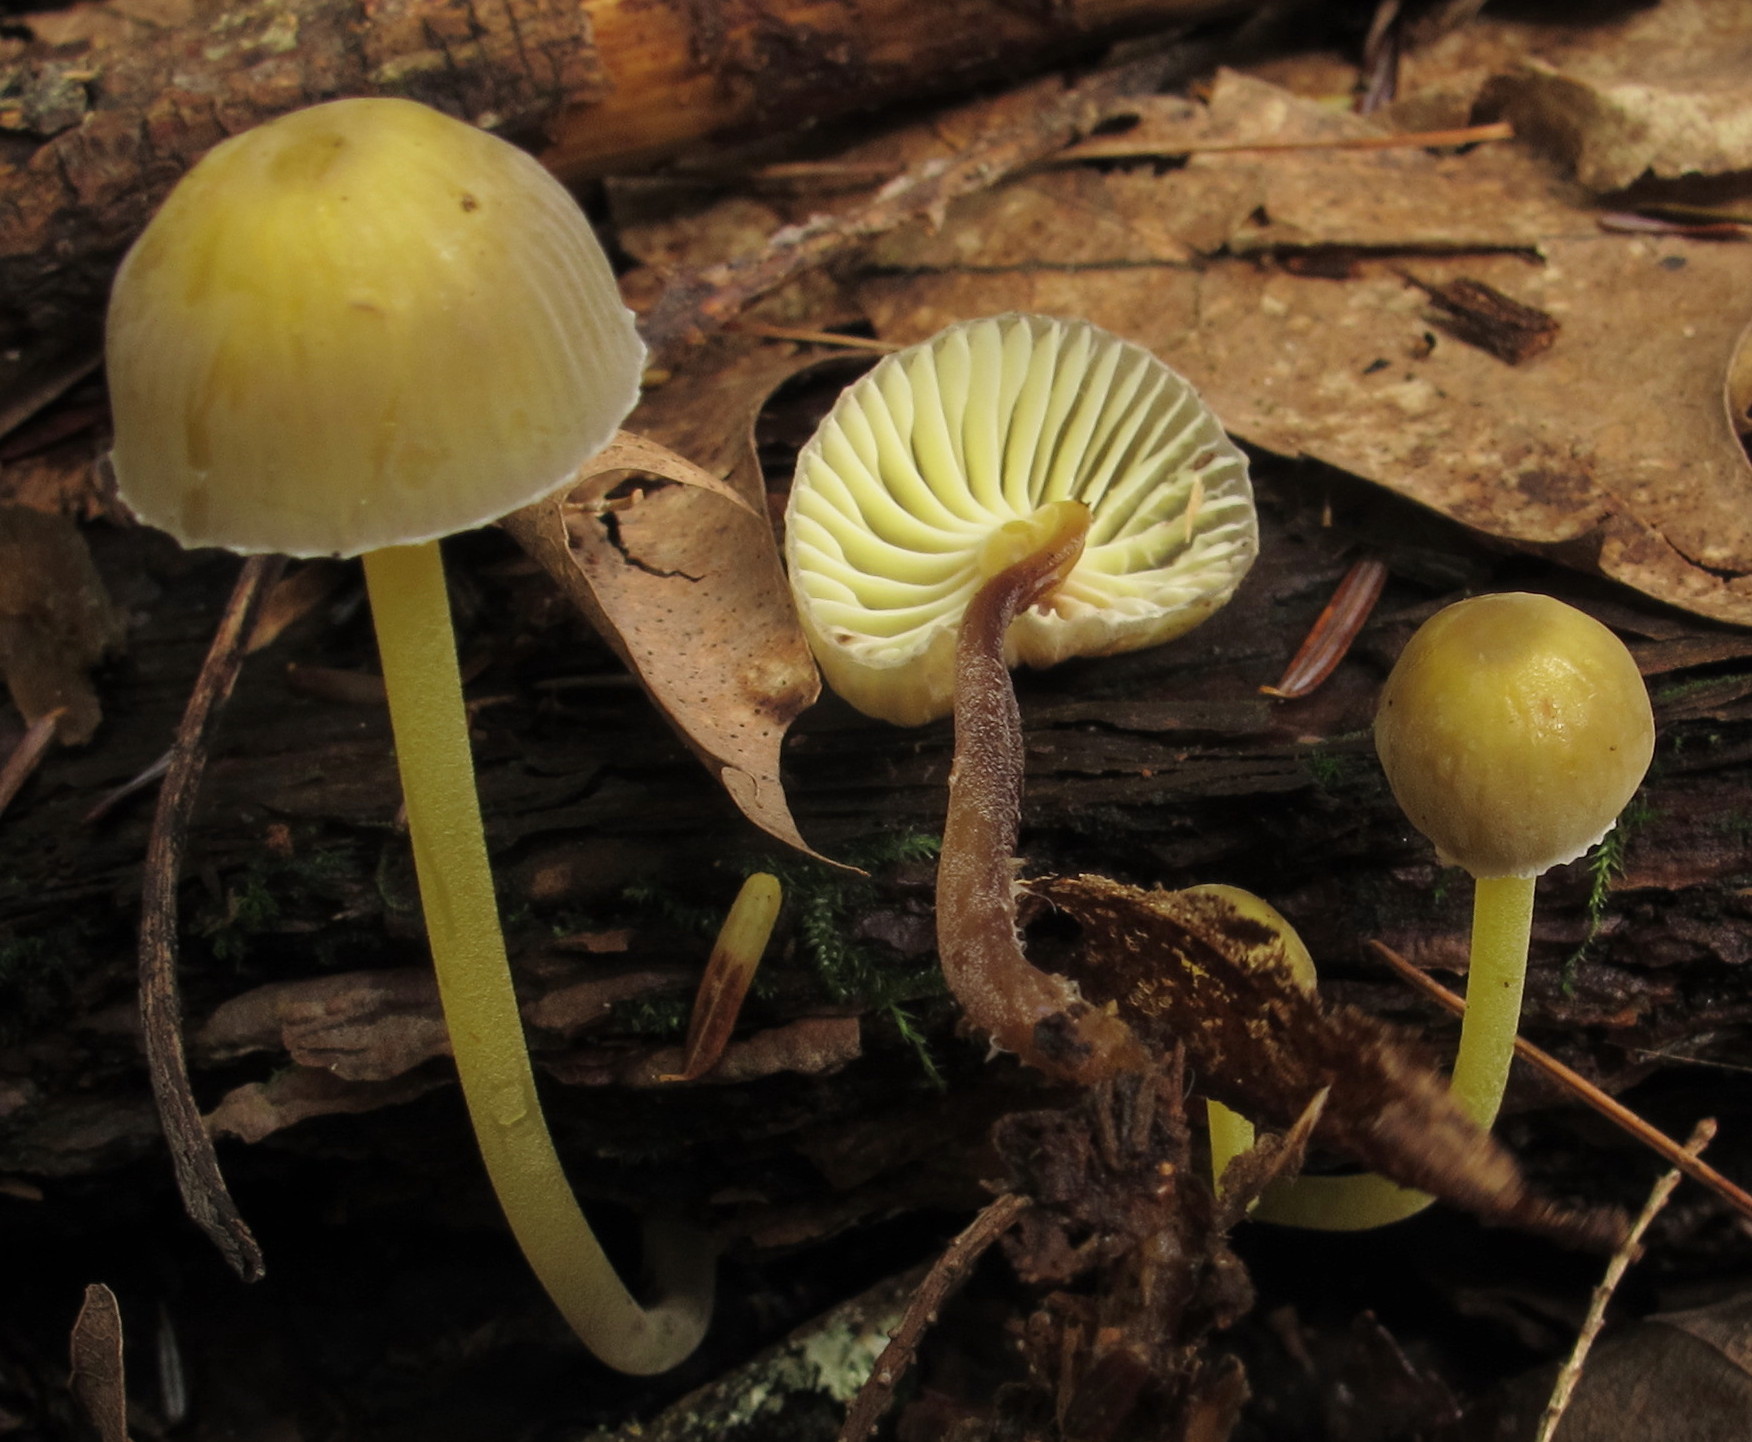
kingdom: Fungi
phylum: Basidiomycota
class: Agaricomycetes
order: Agaricales
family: Mycenaceae
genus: Mycena
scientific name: Mycena epipterygia
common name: Yellowleg bonnet
